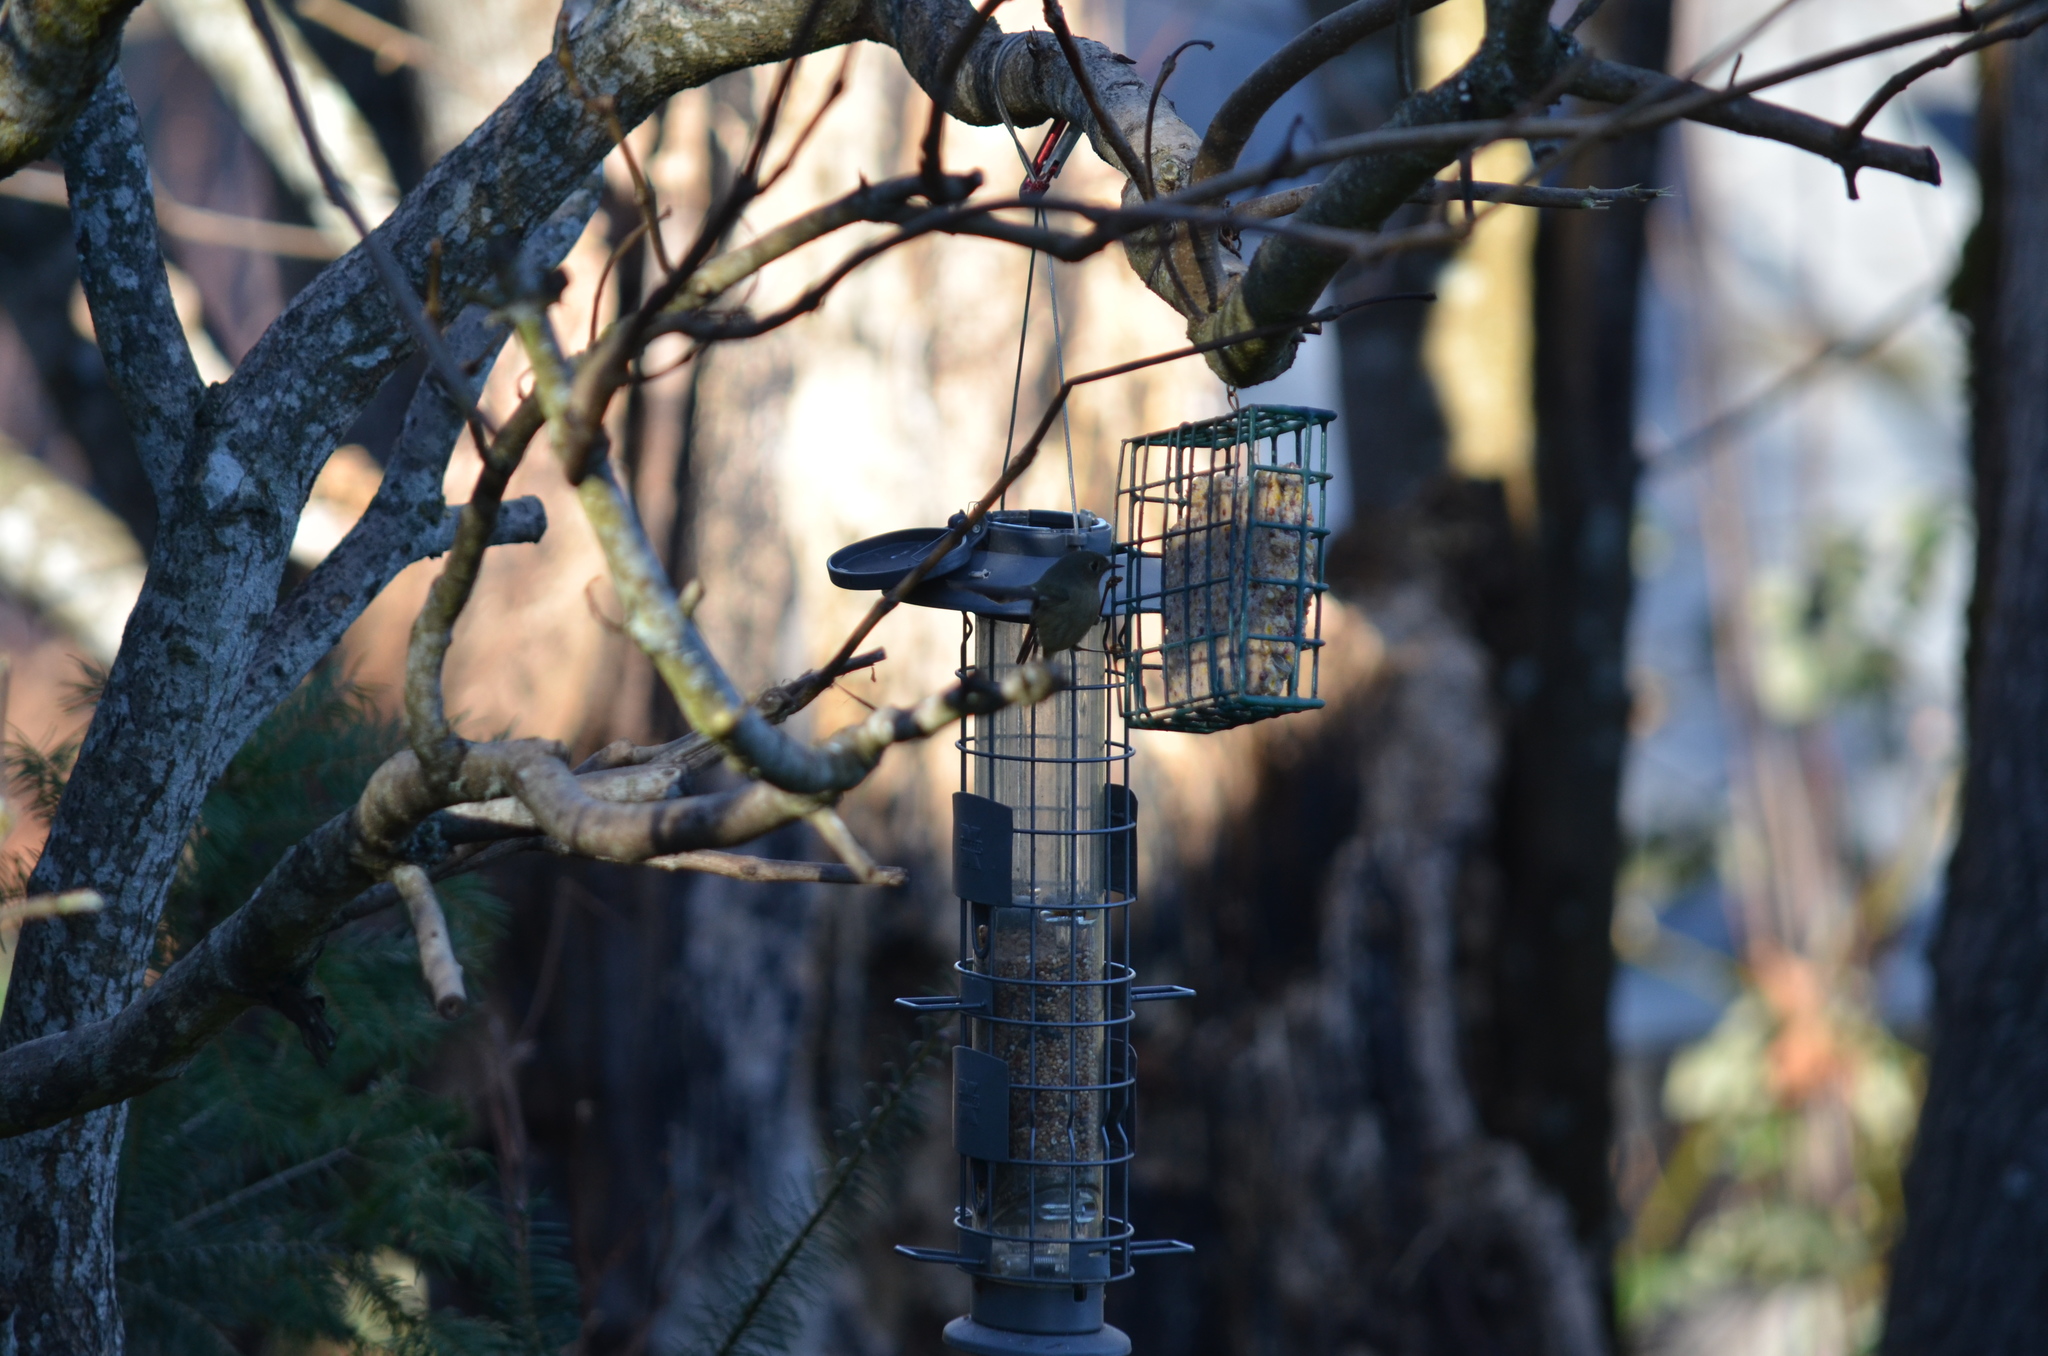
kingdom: Animalia
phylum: Chordata
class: Aves
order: Passeriformes
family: Regulidae
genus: Regulus
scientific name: Regulus calendula
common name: Ruby-crowned kinglet
